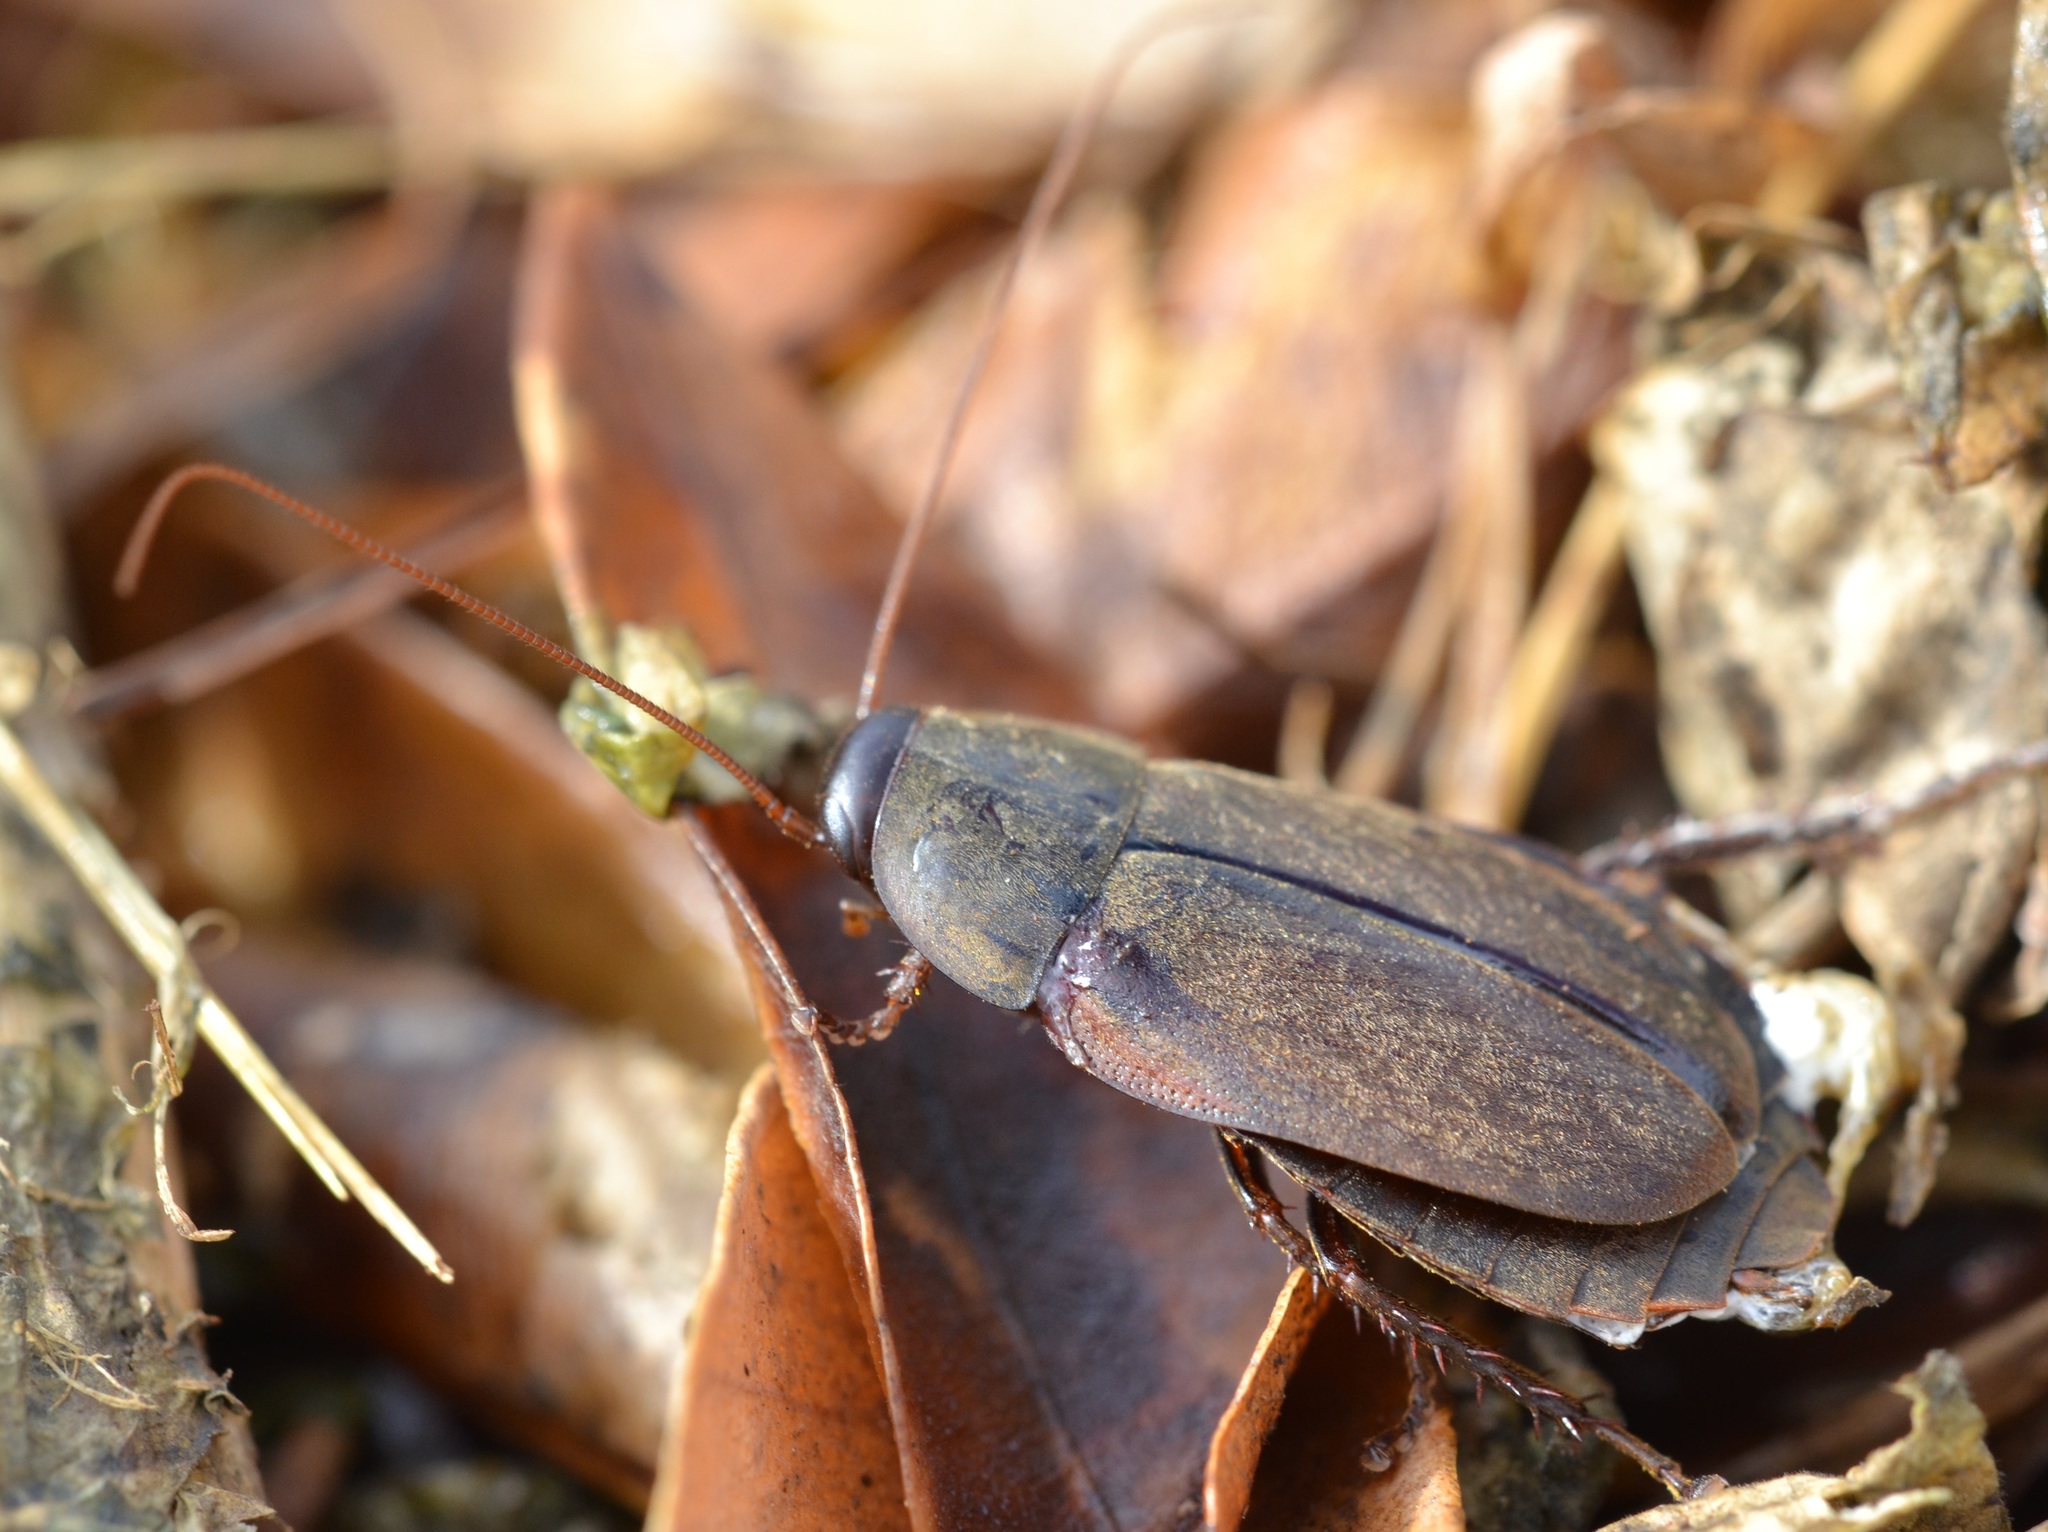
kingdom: Animalia
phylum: Arthropoda
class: Insecta
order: Blattodea
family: Blaberidae
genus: Diploptera
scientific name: Diploptera punctata
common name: Pacific beetle cockroach
